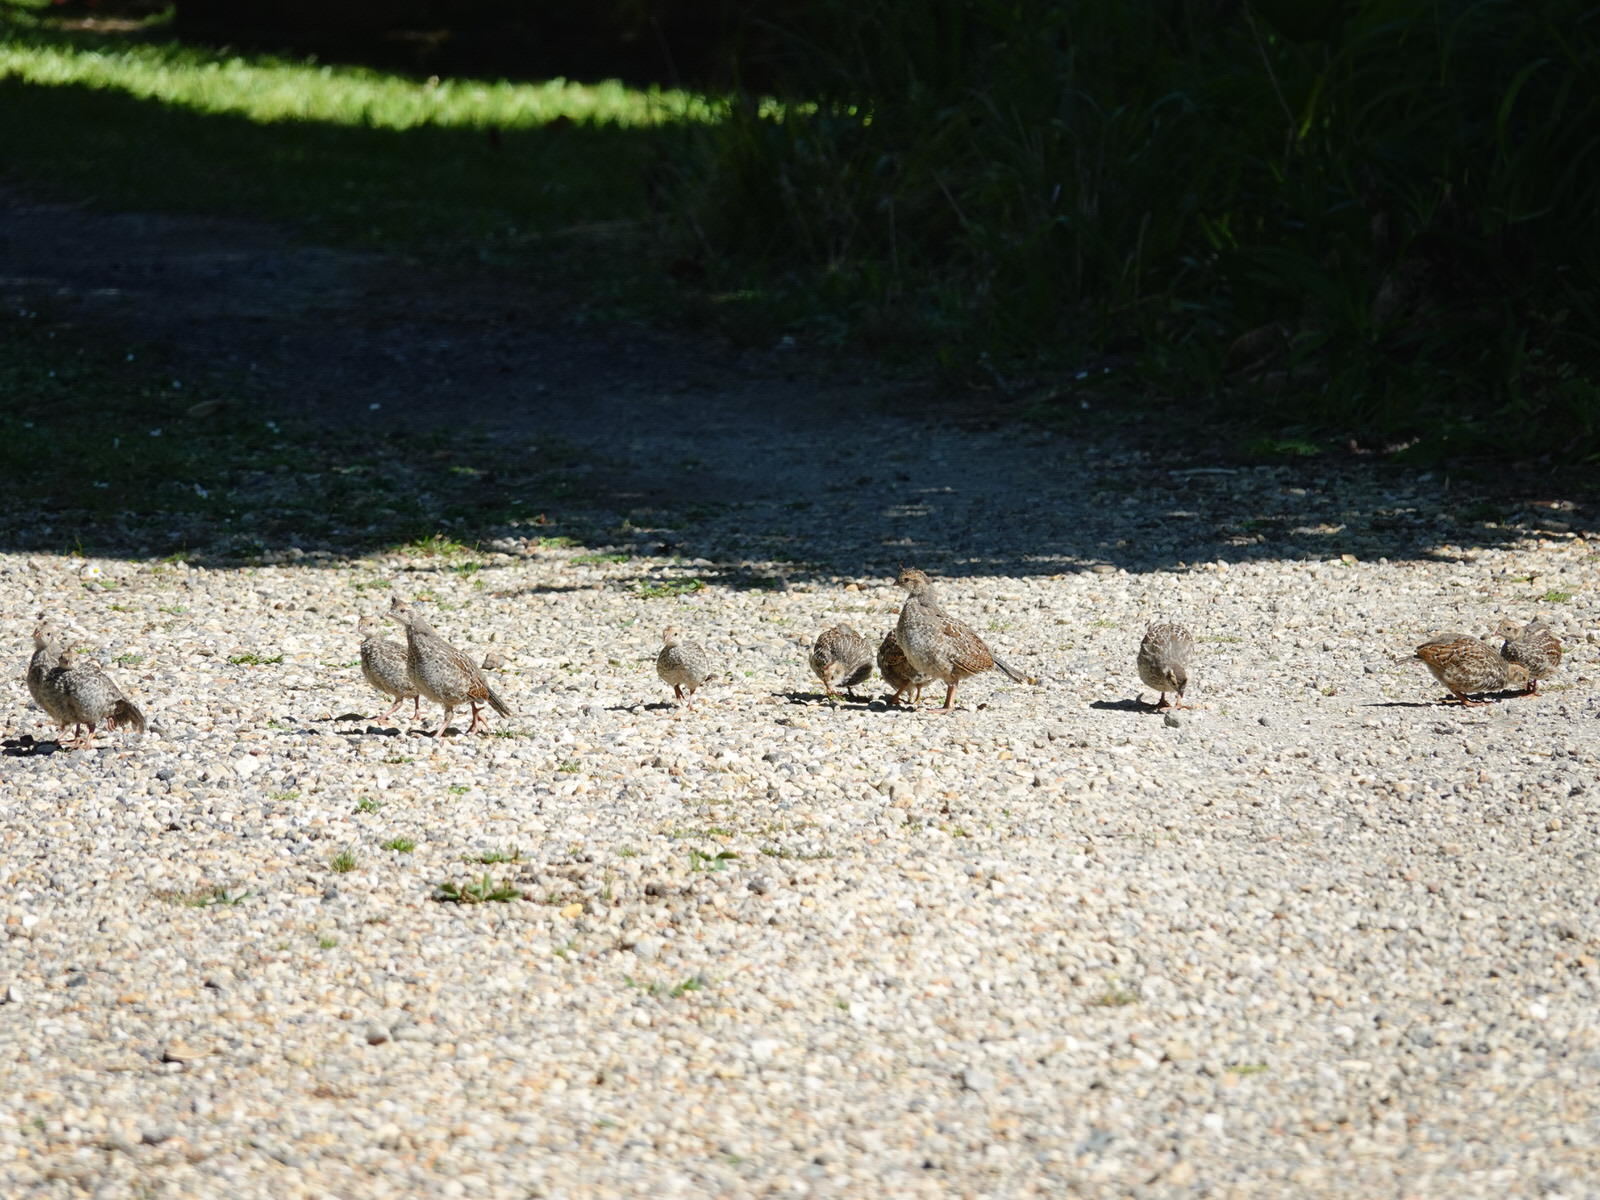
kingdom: Animalia
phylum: Chordata
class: Aves
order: Galliformes
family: Odontophoridae
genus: Callipepla
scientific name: Callipepla californica
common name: California quail
